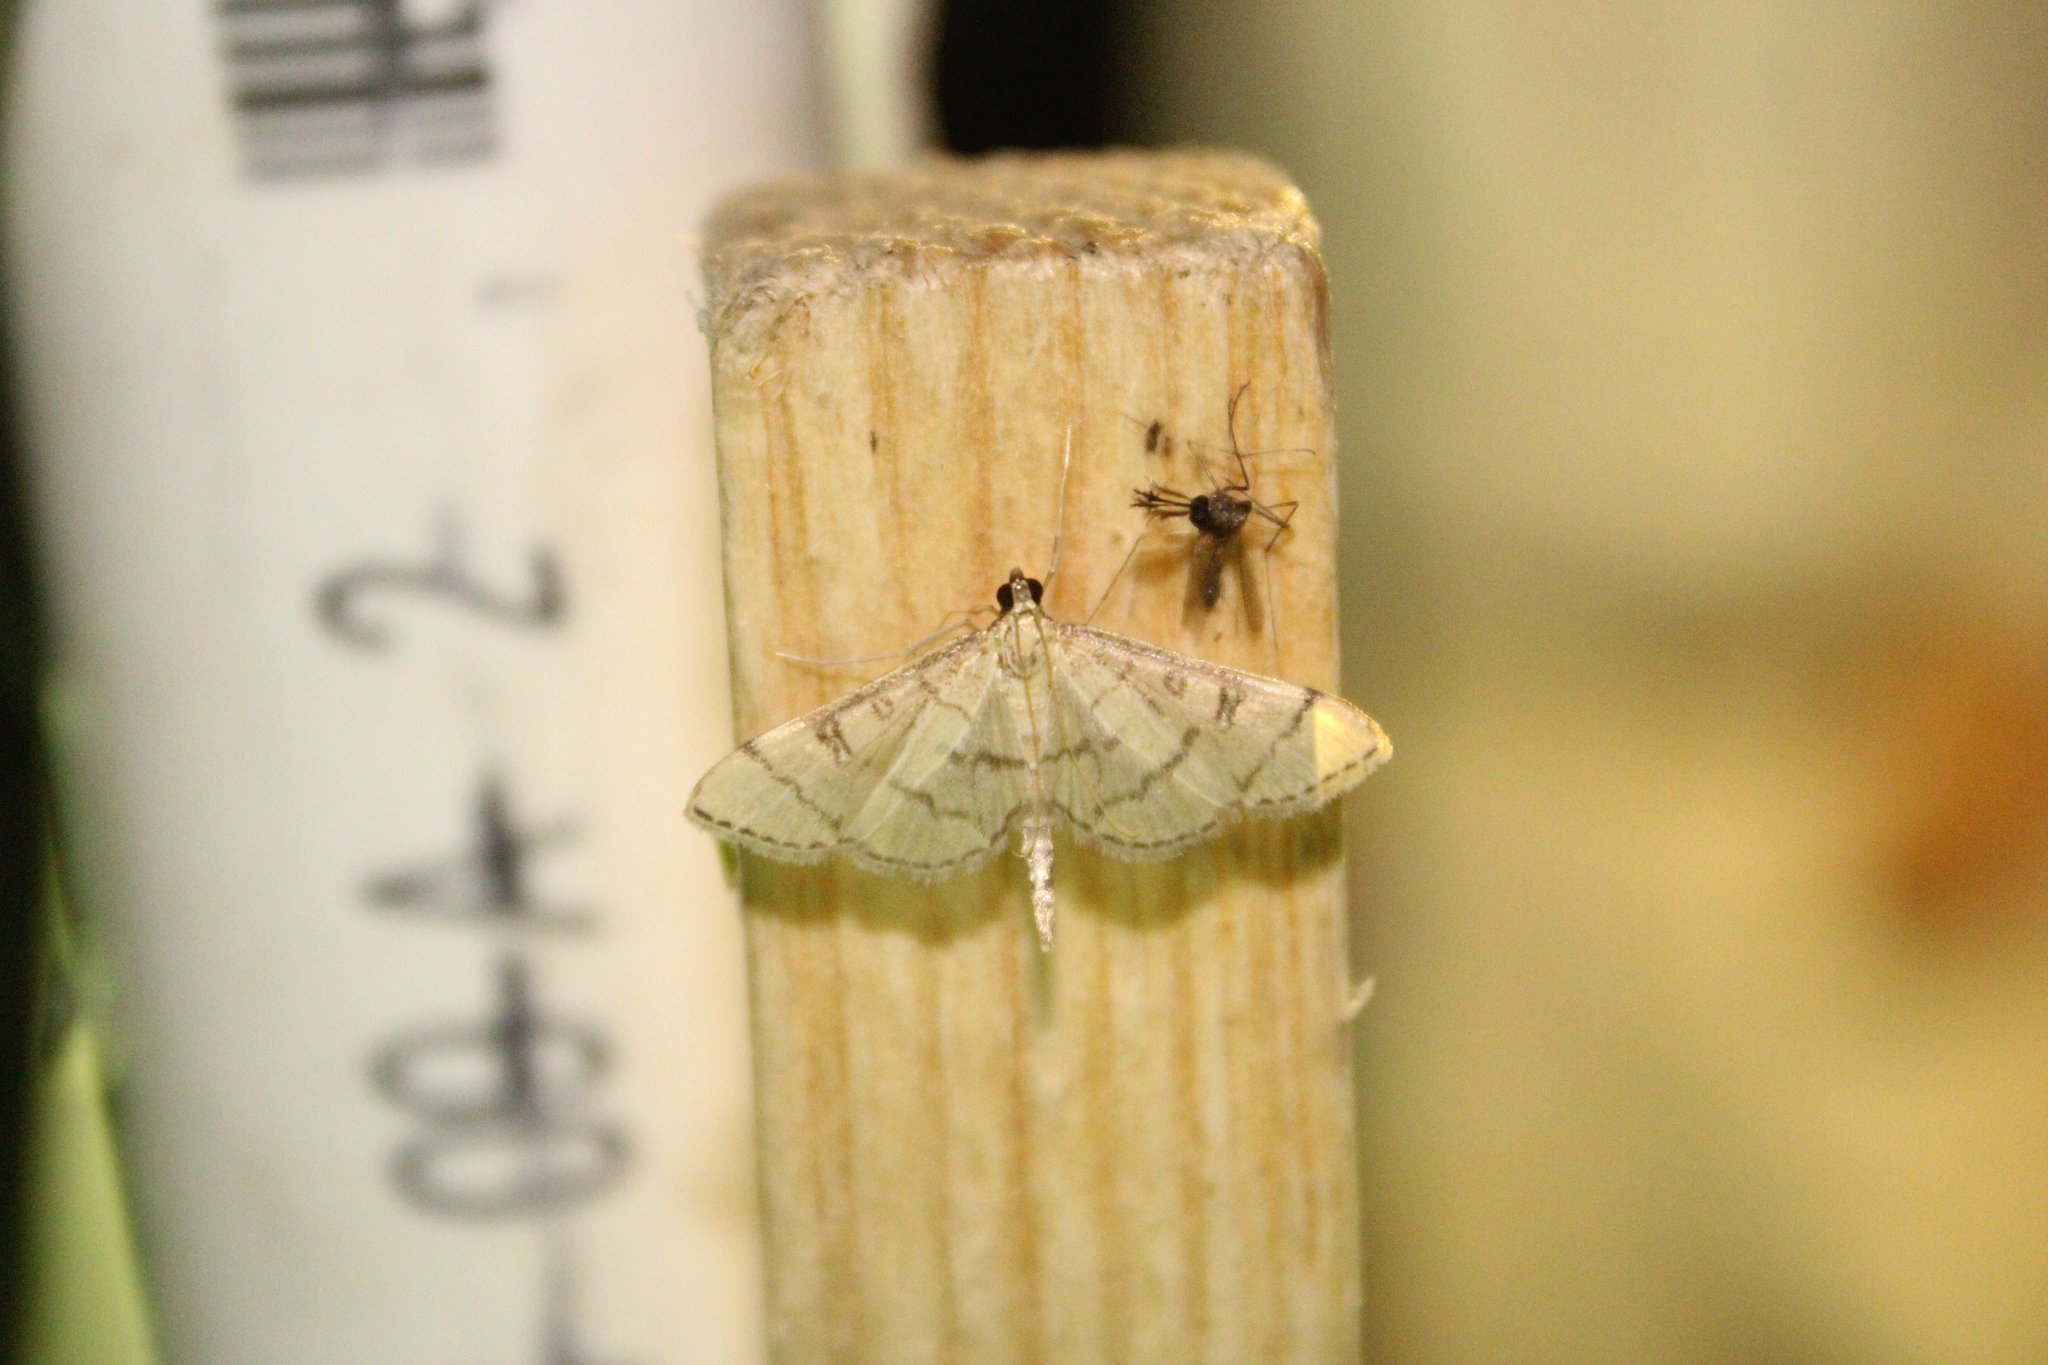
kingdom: Animalia
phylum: Arthropoda
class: Insecta
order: Lepidoptera
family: Crambidae
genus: Lamprosema
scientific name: Lamprosema Blepharomastix ranalis
